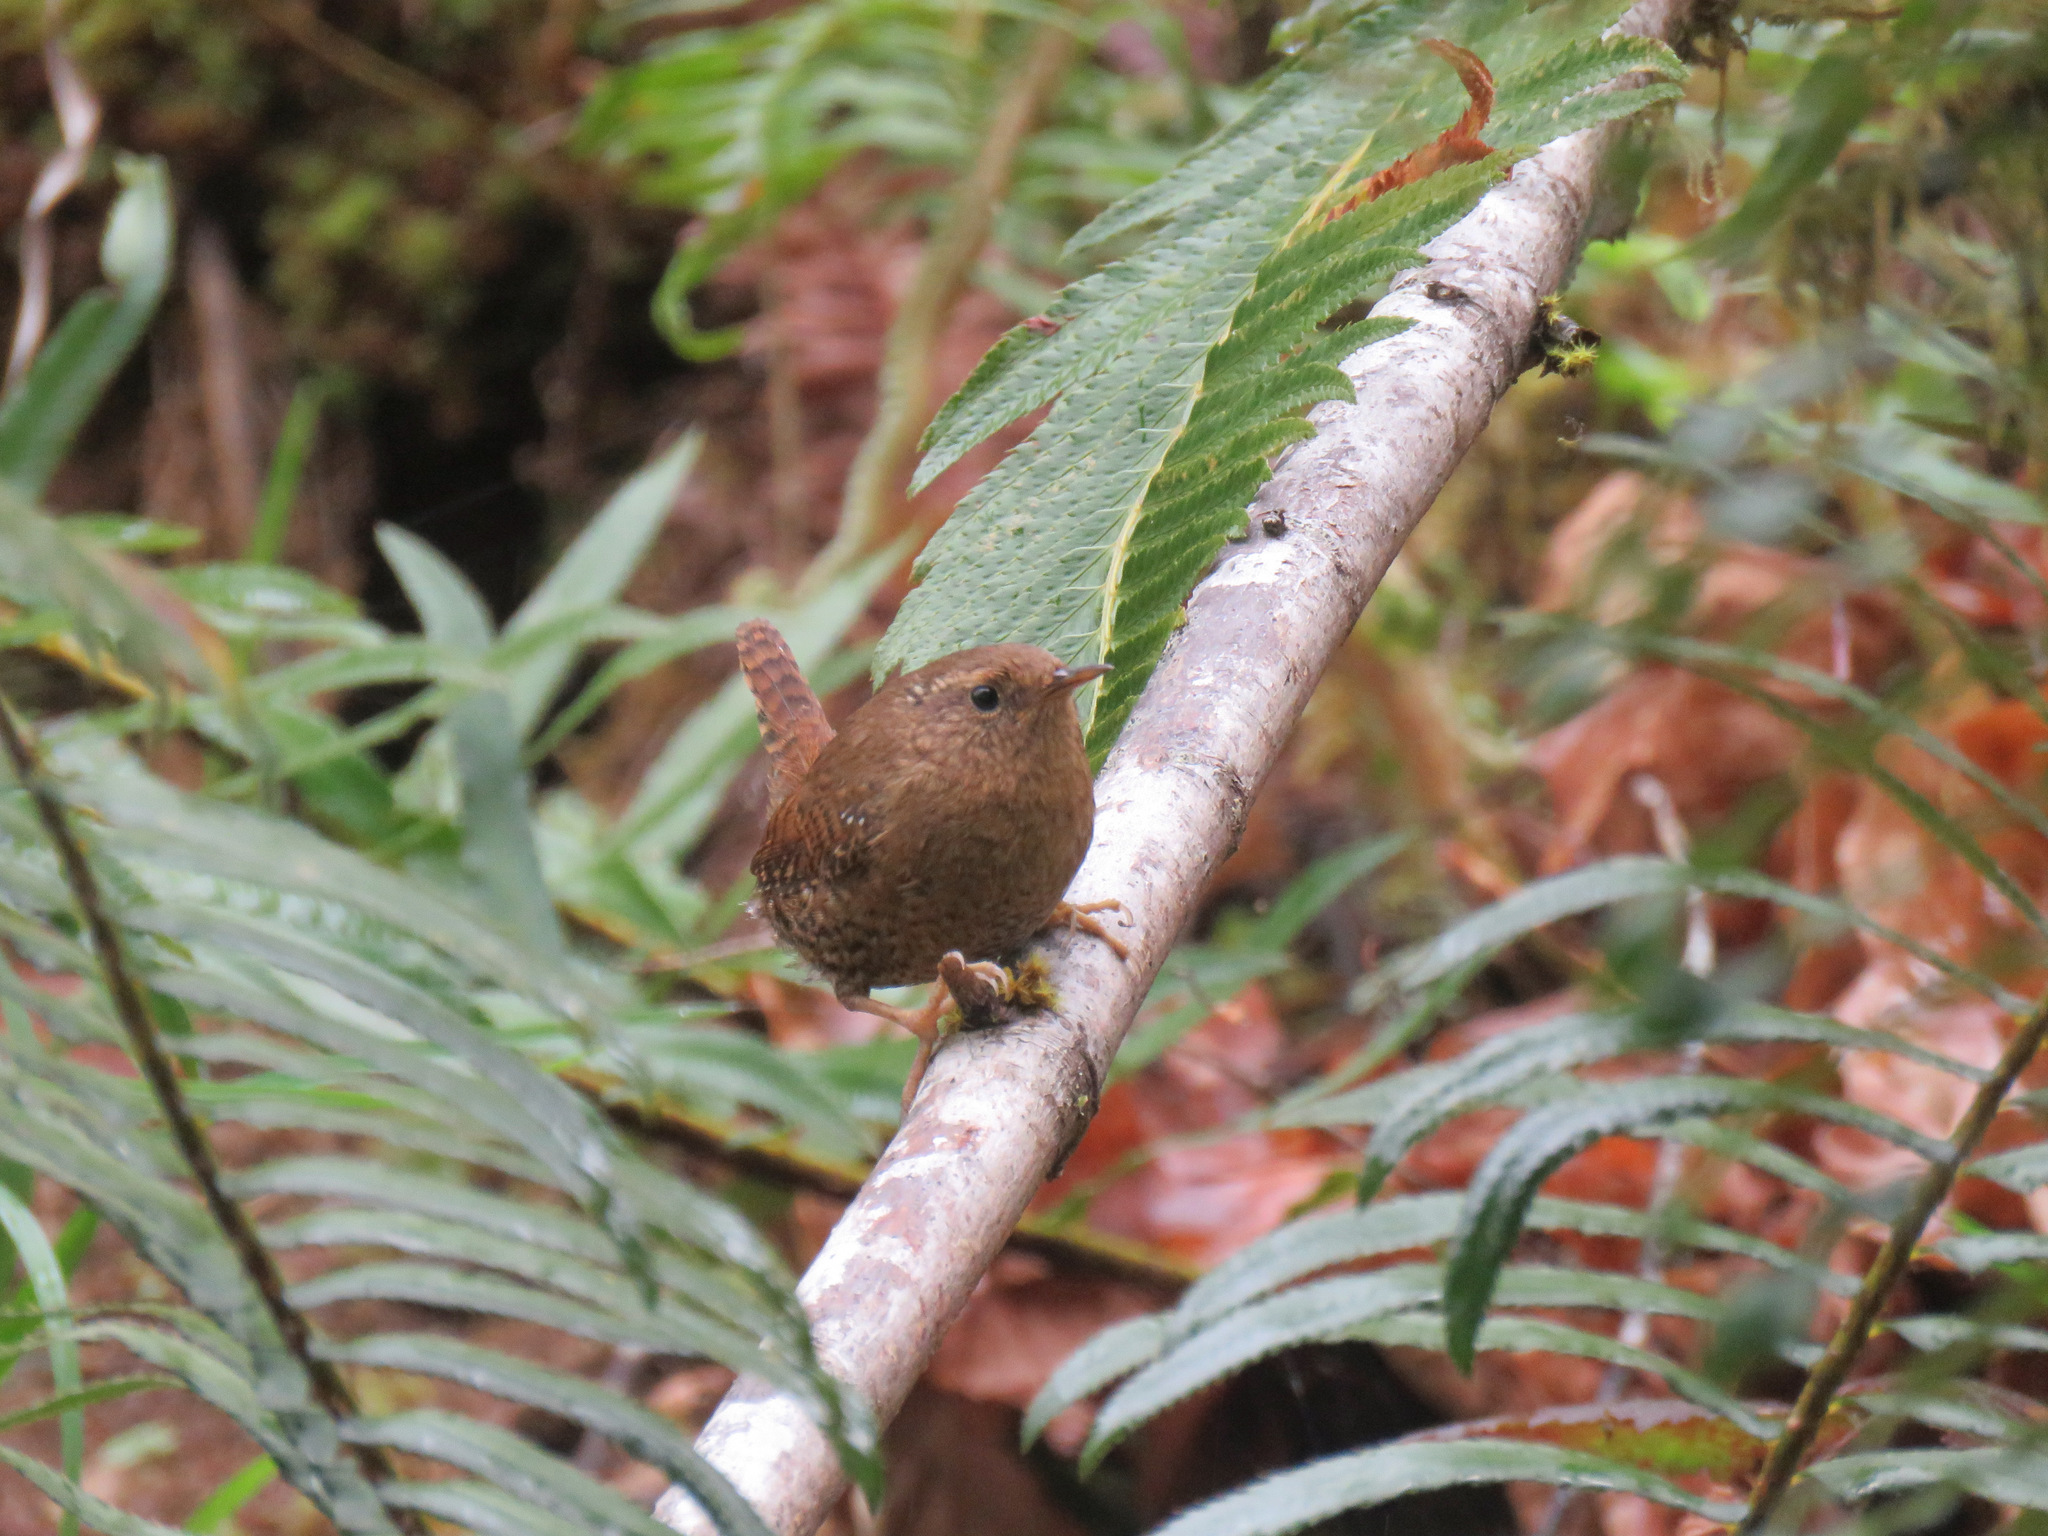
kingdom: Animalia
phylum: Chordata
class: Aves
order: Passeriformes
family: Troglodytidae
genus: Troglodytes
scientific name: Troglodytes pacificus
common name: Pacific wren
